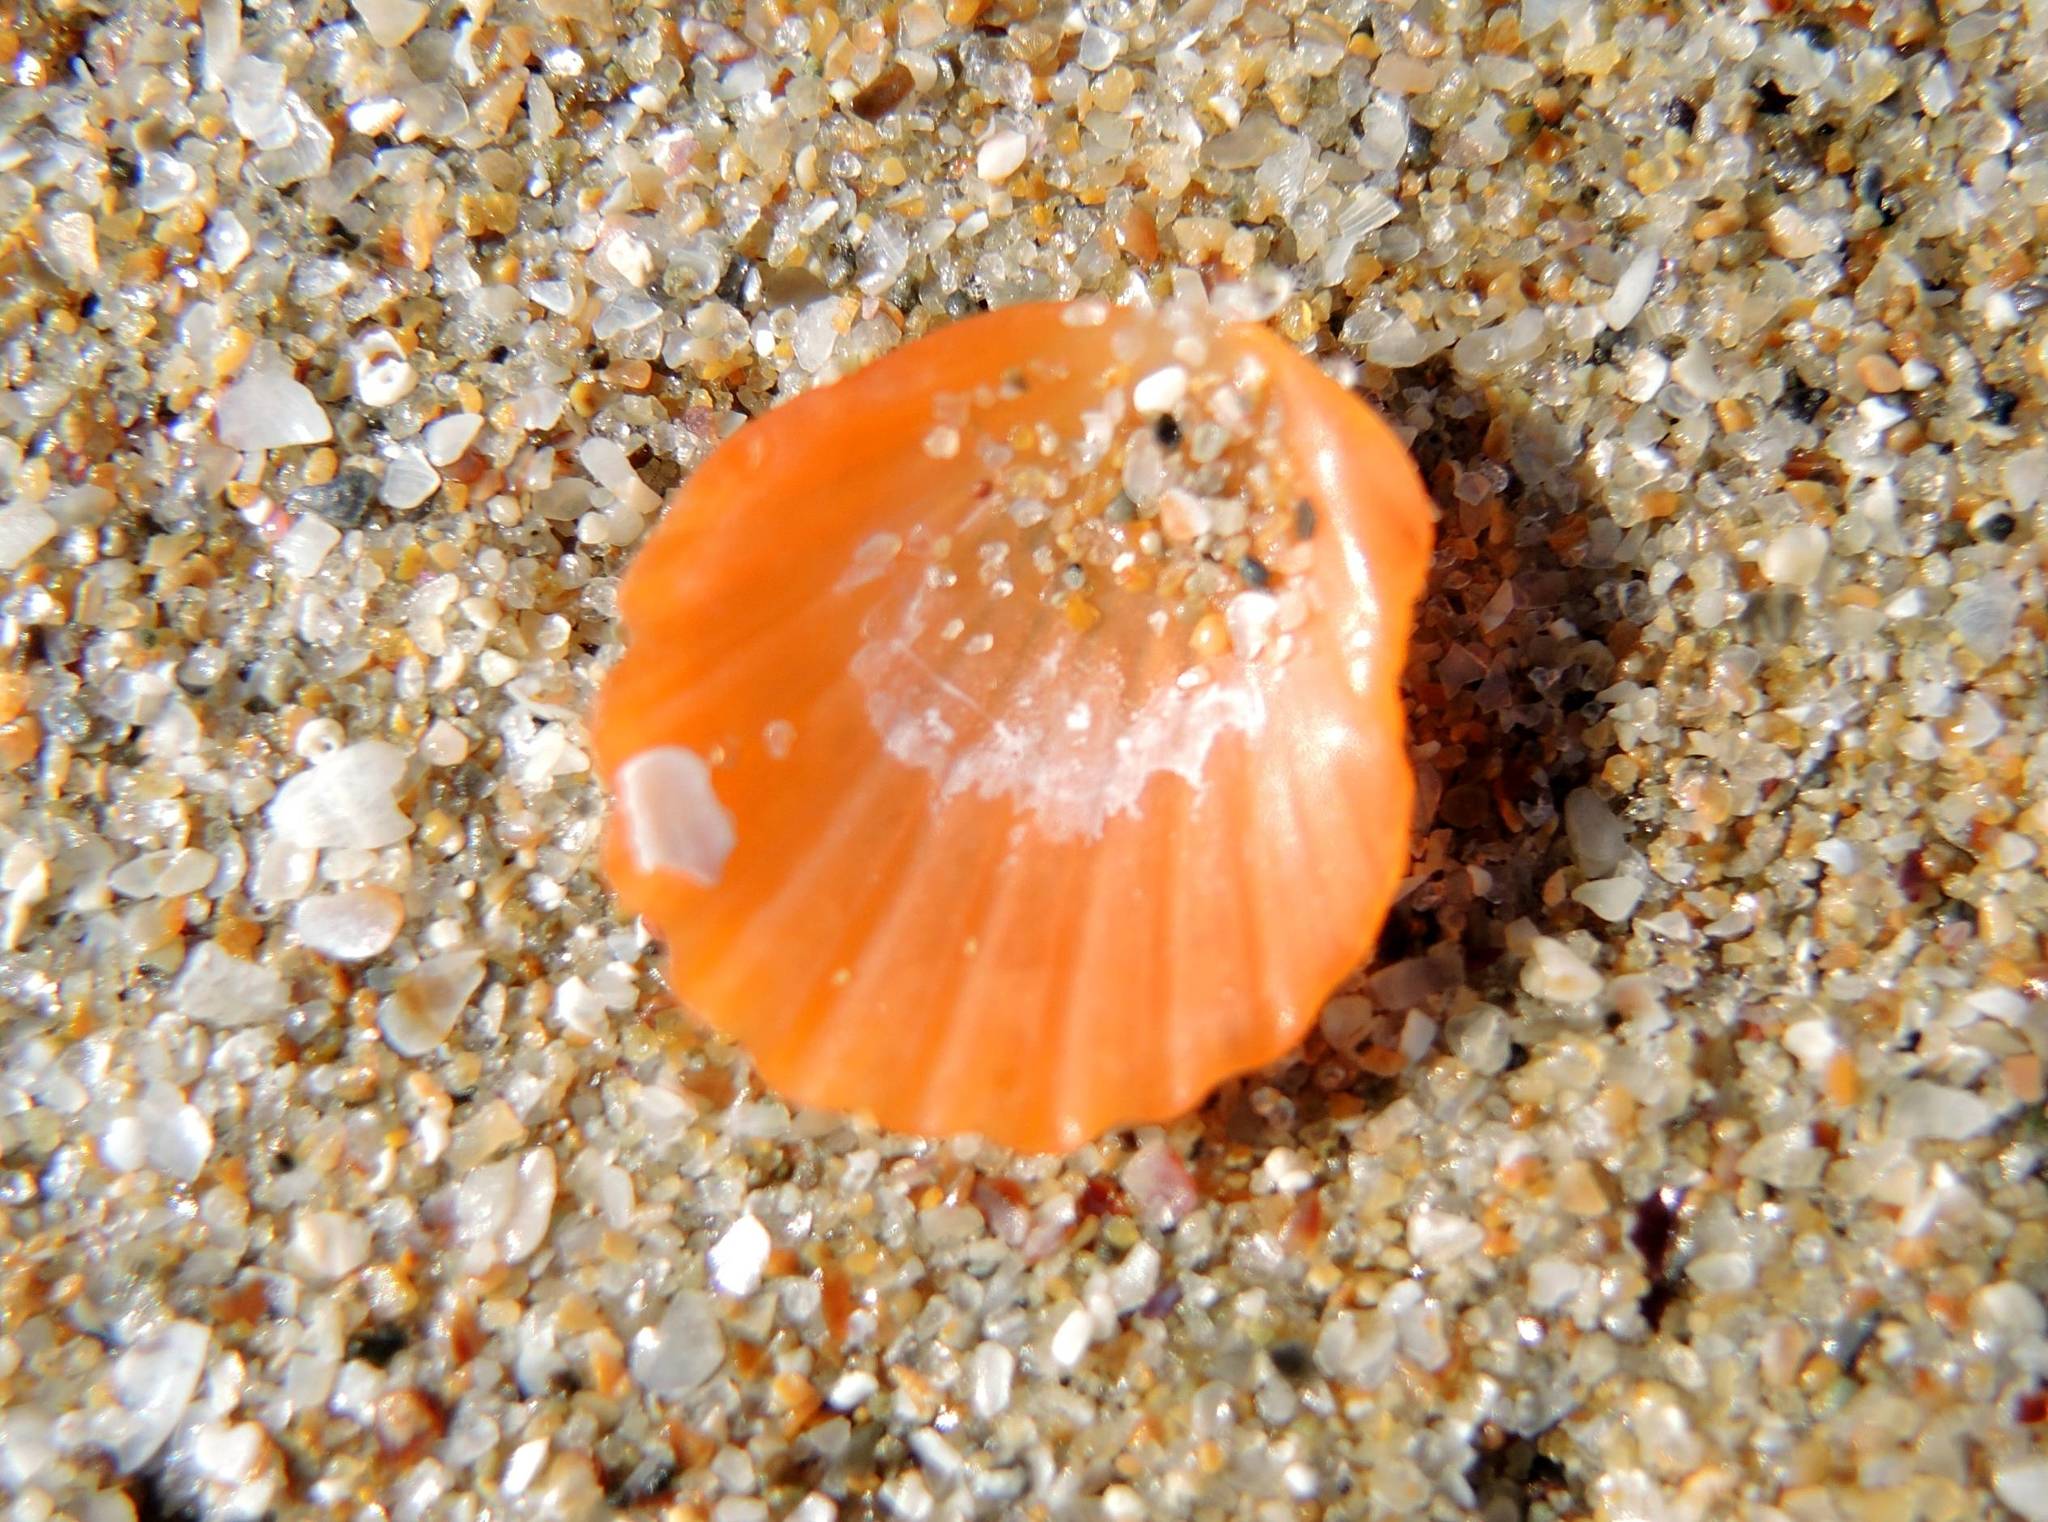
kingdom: Animalia
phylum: Mollusca
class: Bivalvia
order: Pectinida
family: Pectinidae
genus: Flexopecten
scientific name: Flexopecten glaber
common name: Smooth scallop
